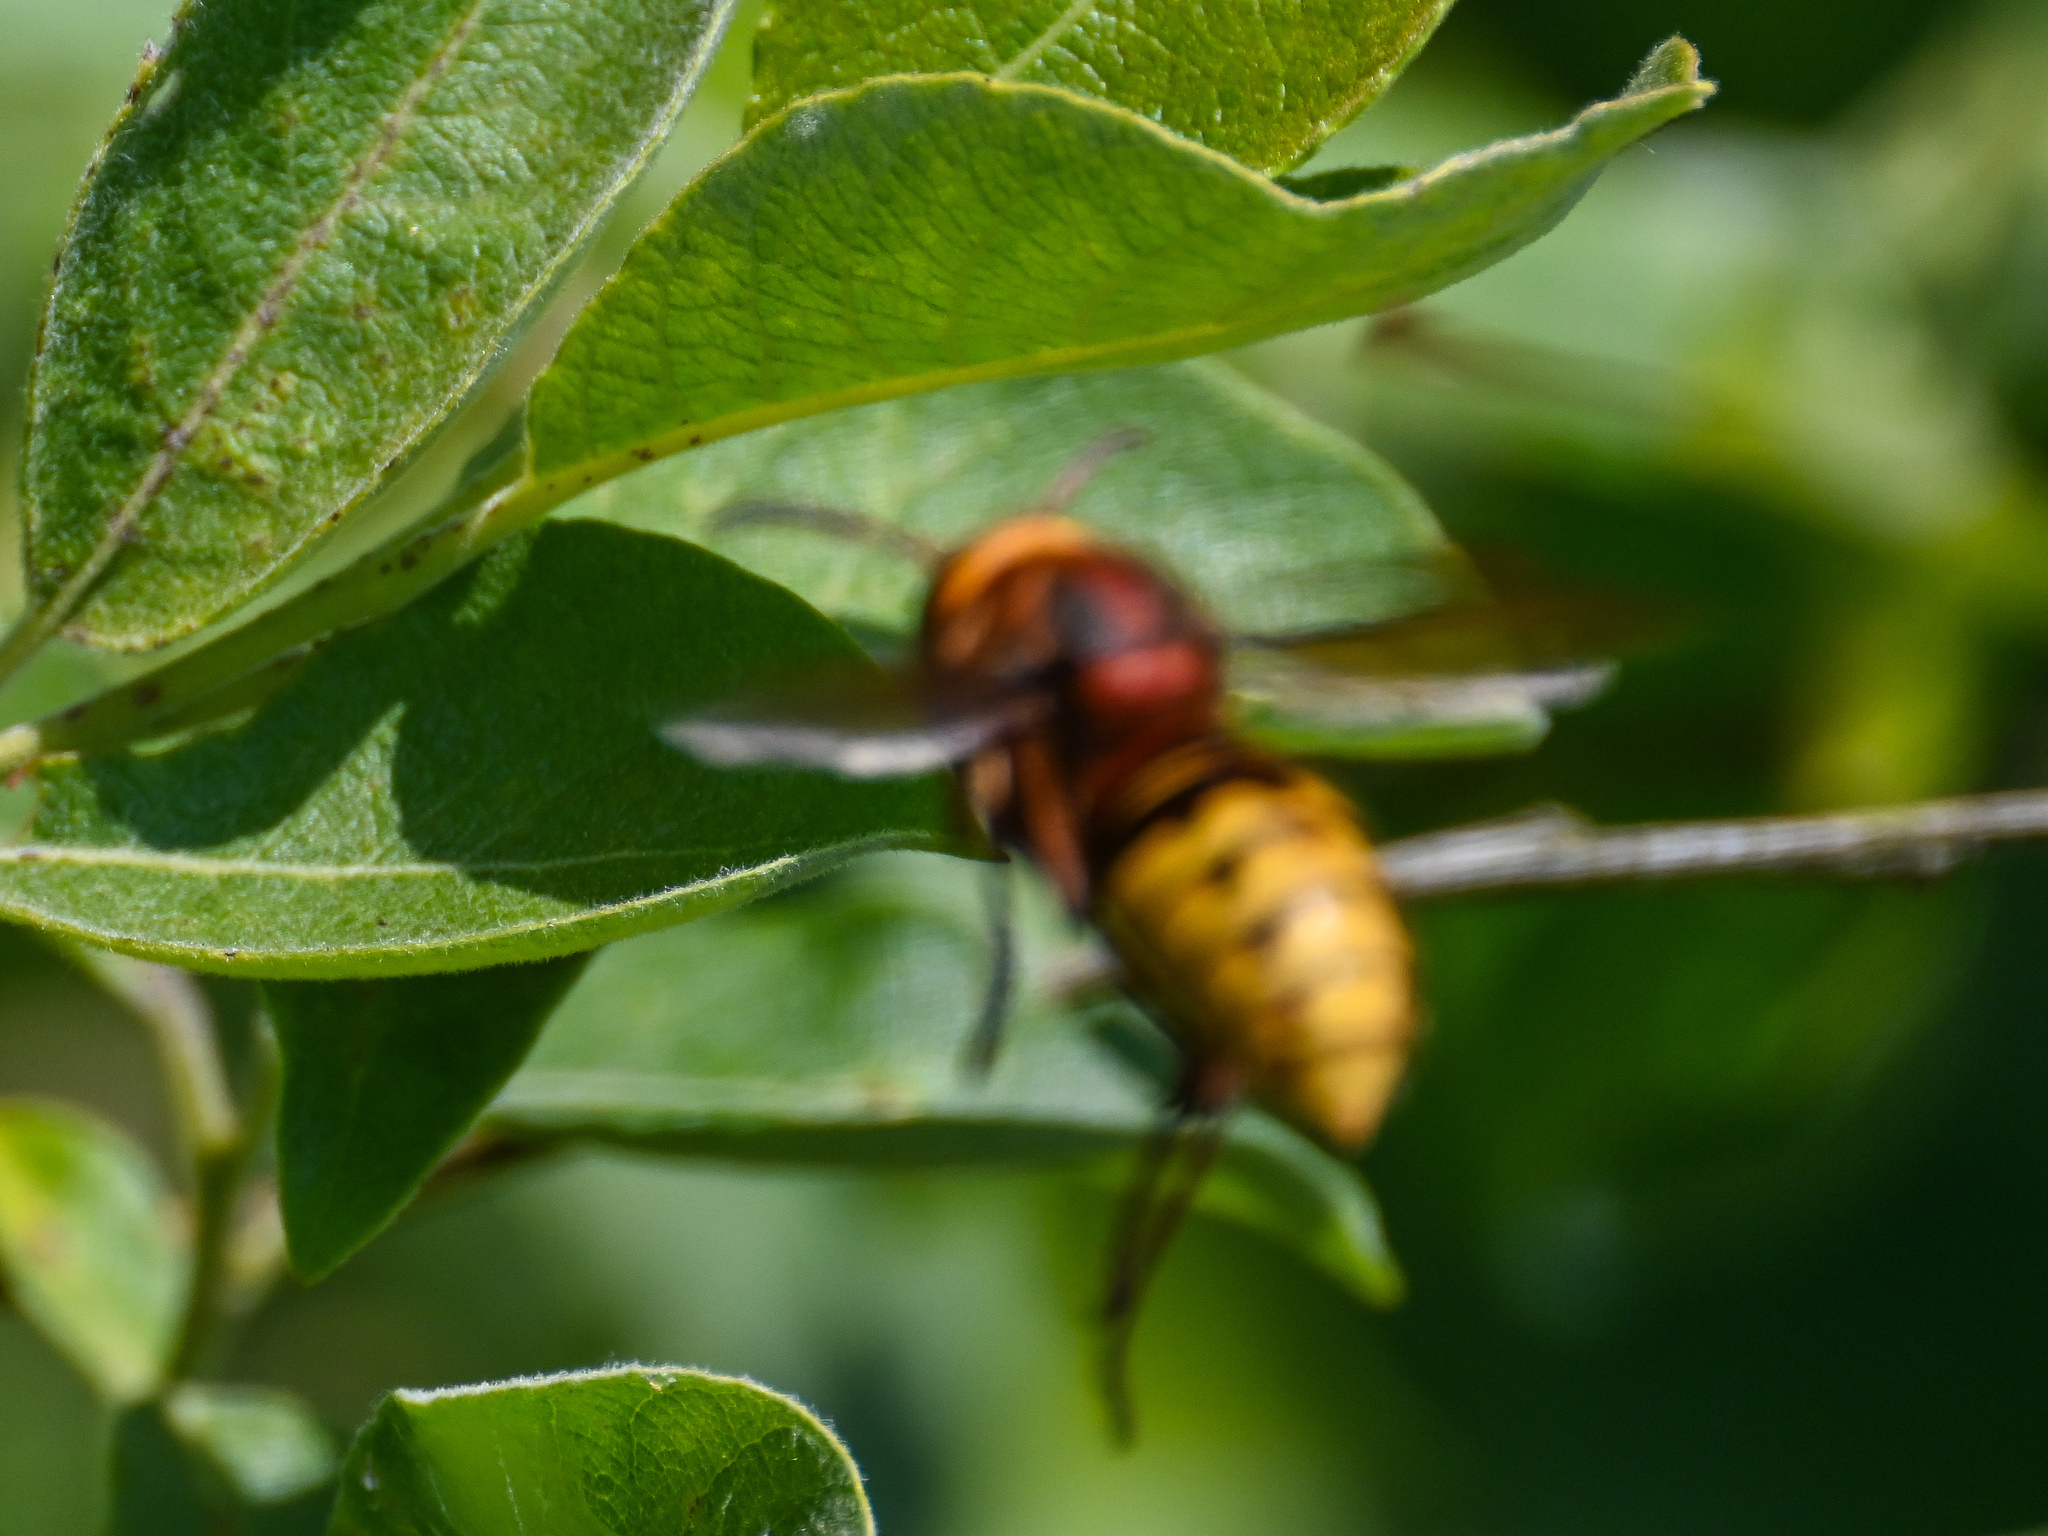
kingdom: Animalia
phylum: Arthropoda
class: Insecta
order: Hymenoptera
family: Vespidae
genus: Vespa
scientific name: Vespa crabro
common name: Hornet
